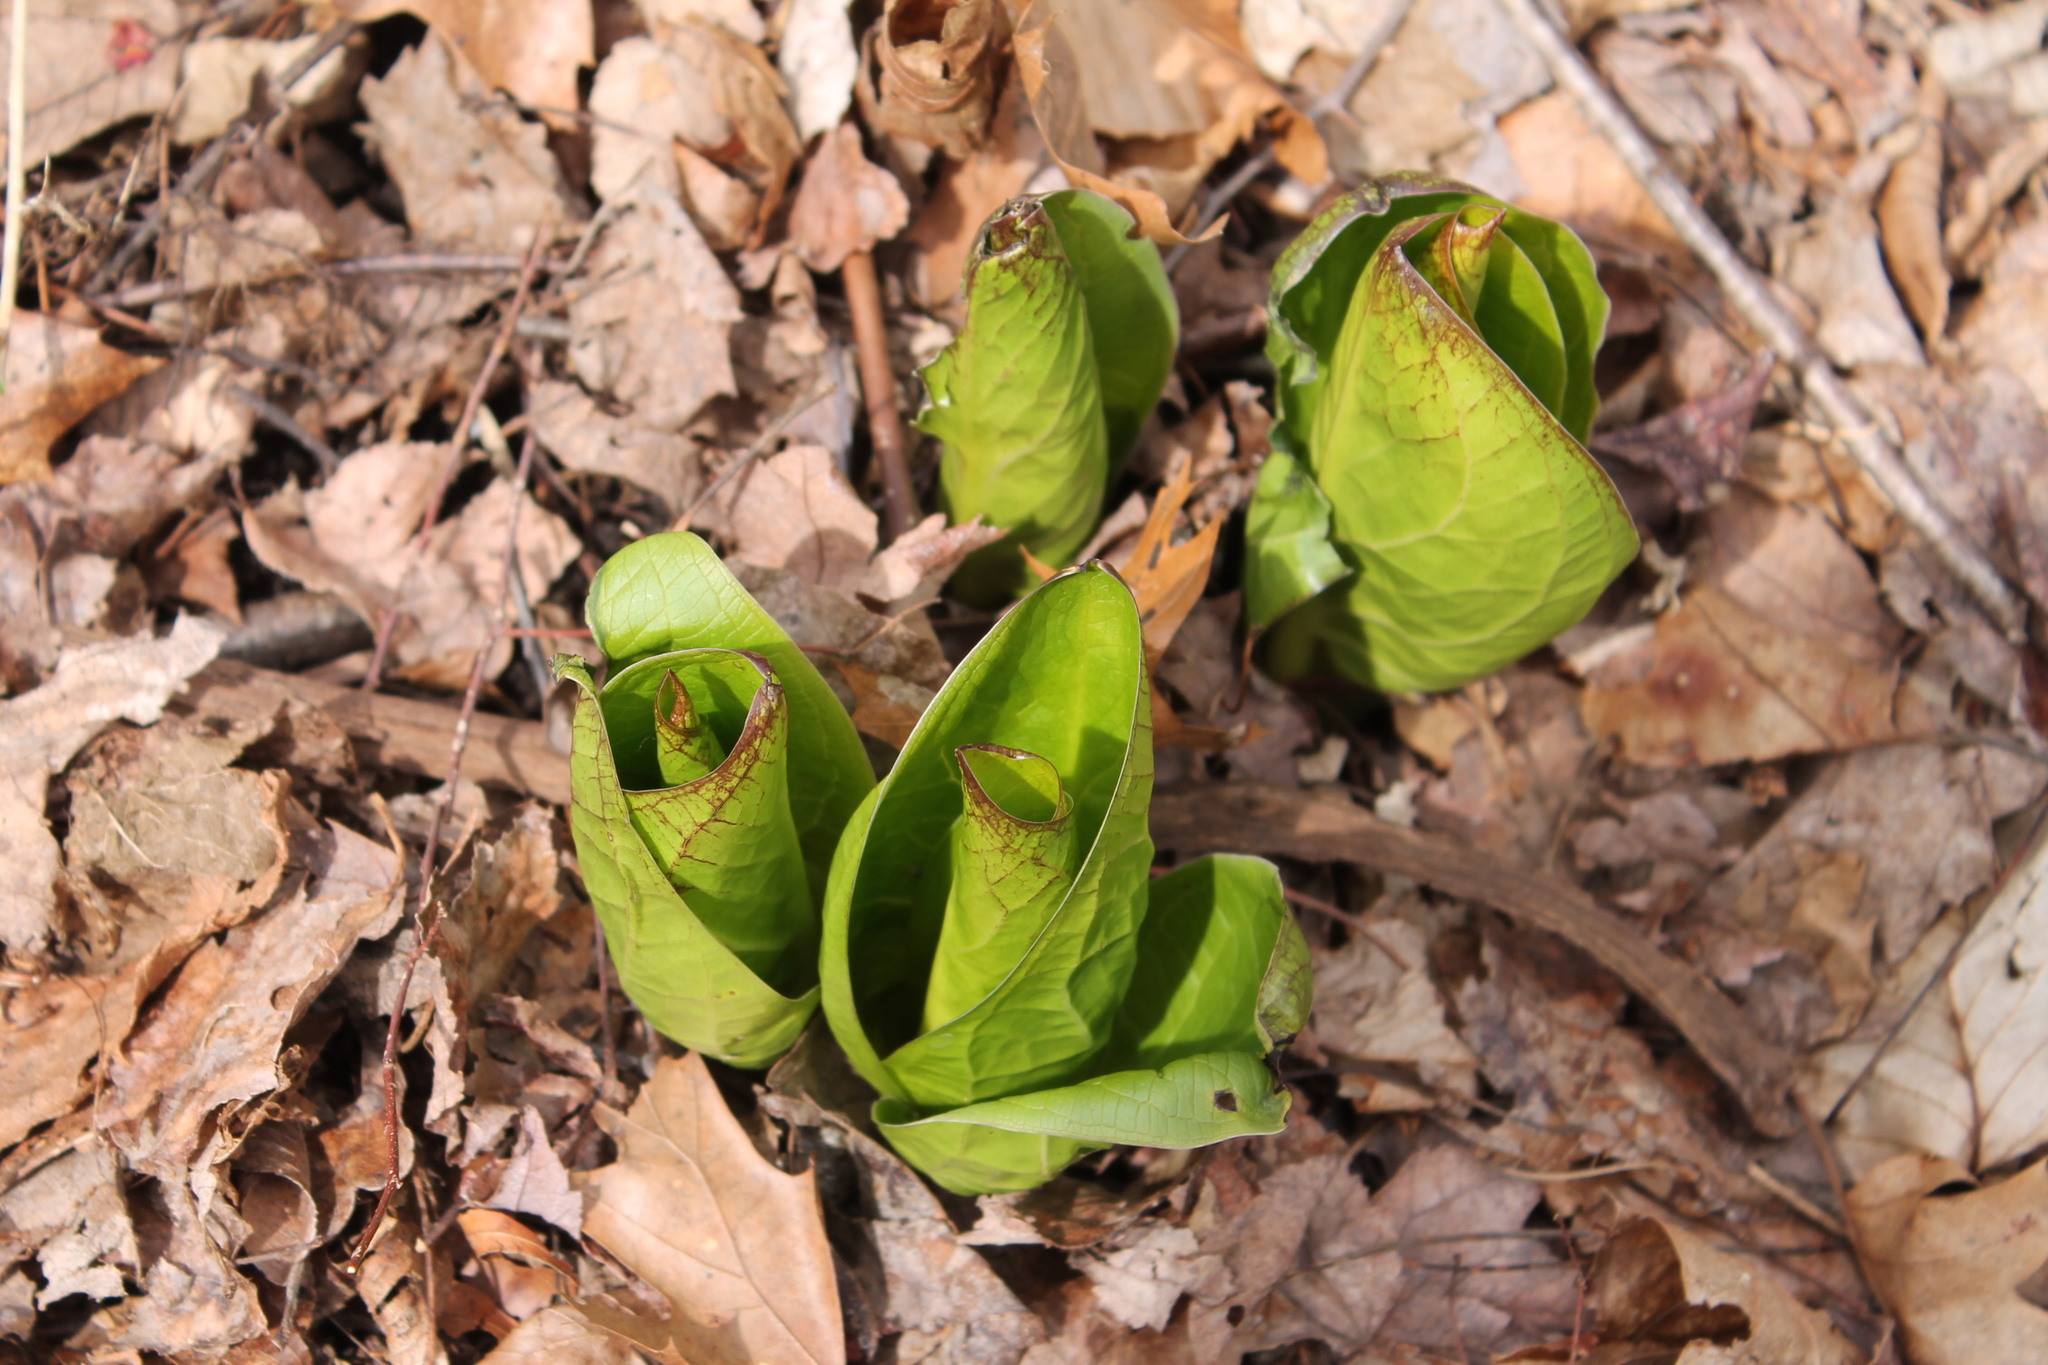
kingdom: Plantae
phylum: Tracheophyta
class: Liliopsida
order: Alismatales
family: Araceae
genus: Symplocarpus
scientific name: Symplocarpus foetidus
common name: Eastern skunk cabbage
